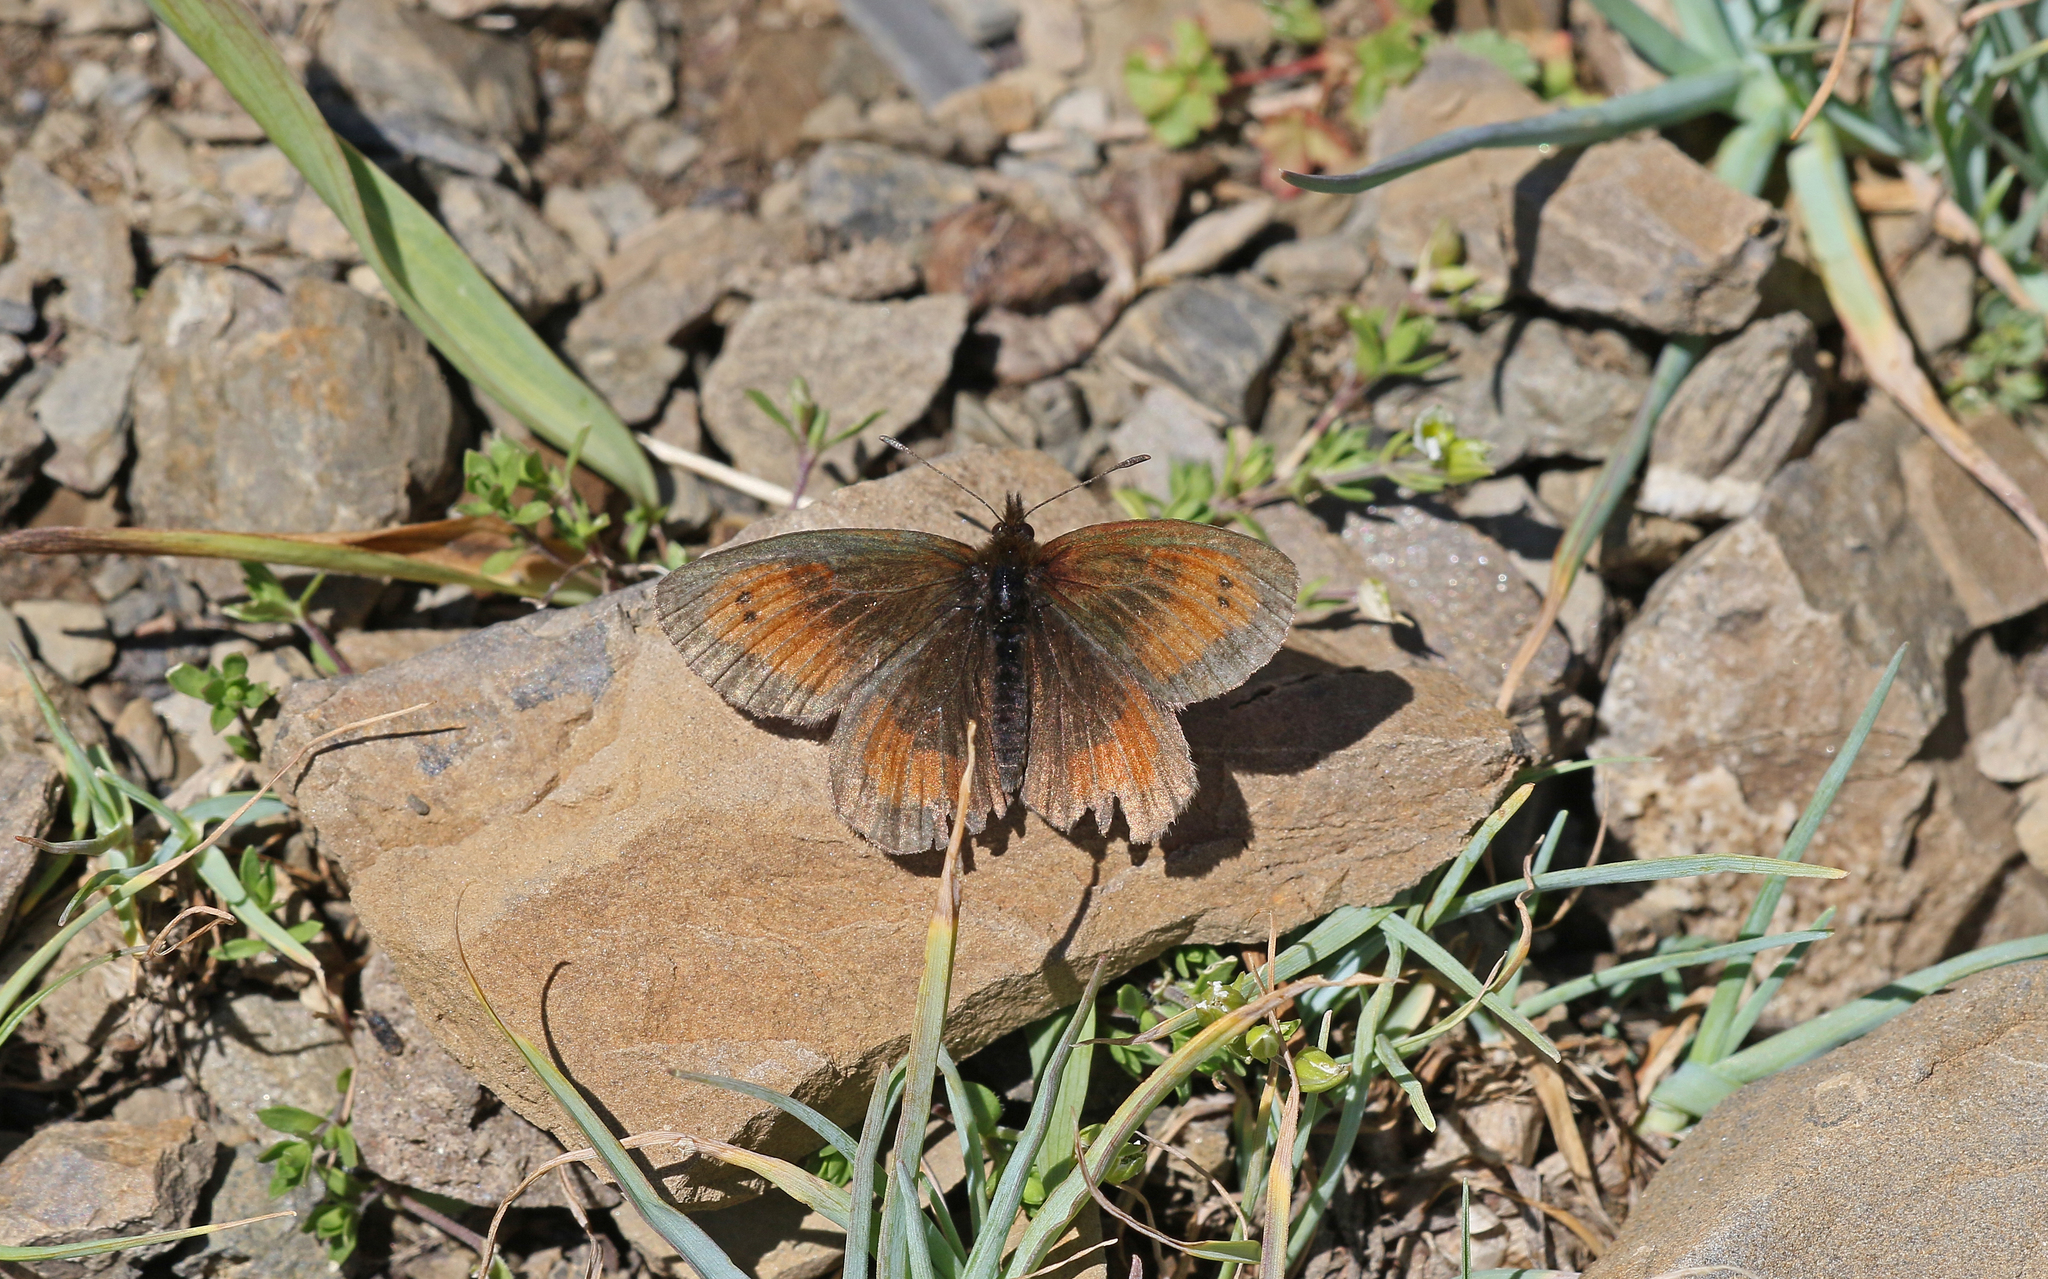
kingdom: Animalia
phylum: Arthropoda
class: Insecta
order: Lepidoptera
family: Nymphalidae
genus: Erebia
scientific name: Erebia mnestra
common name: Mnestra’s ringlet
